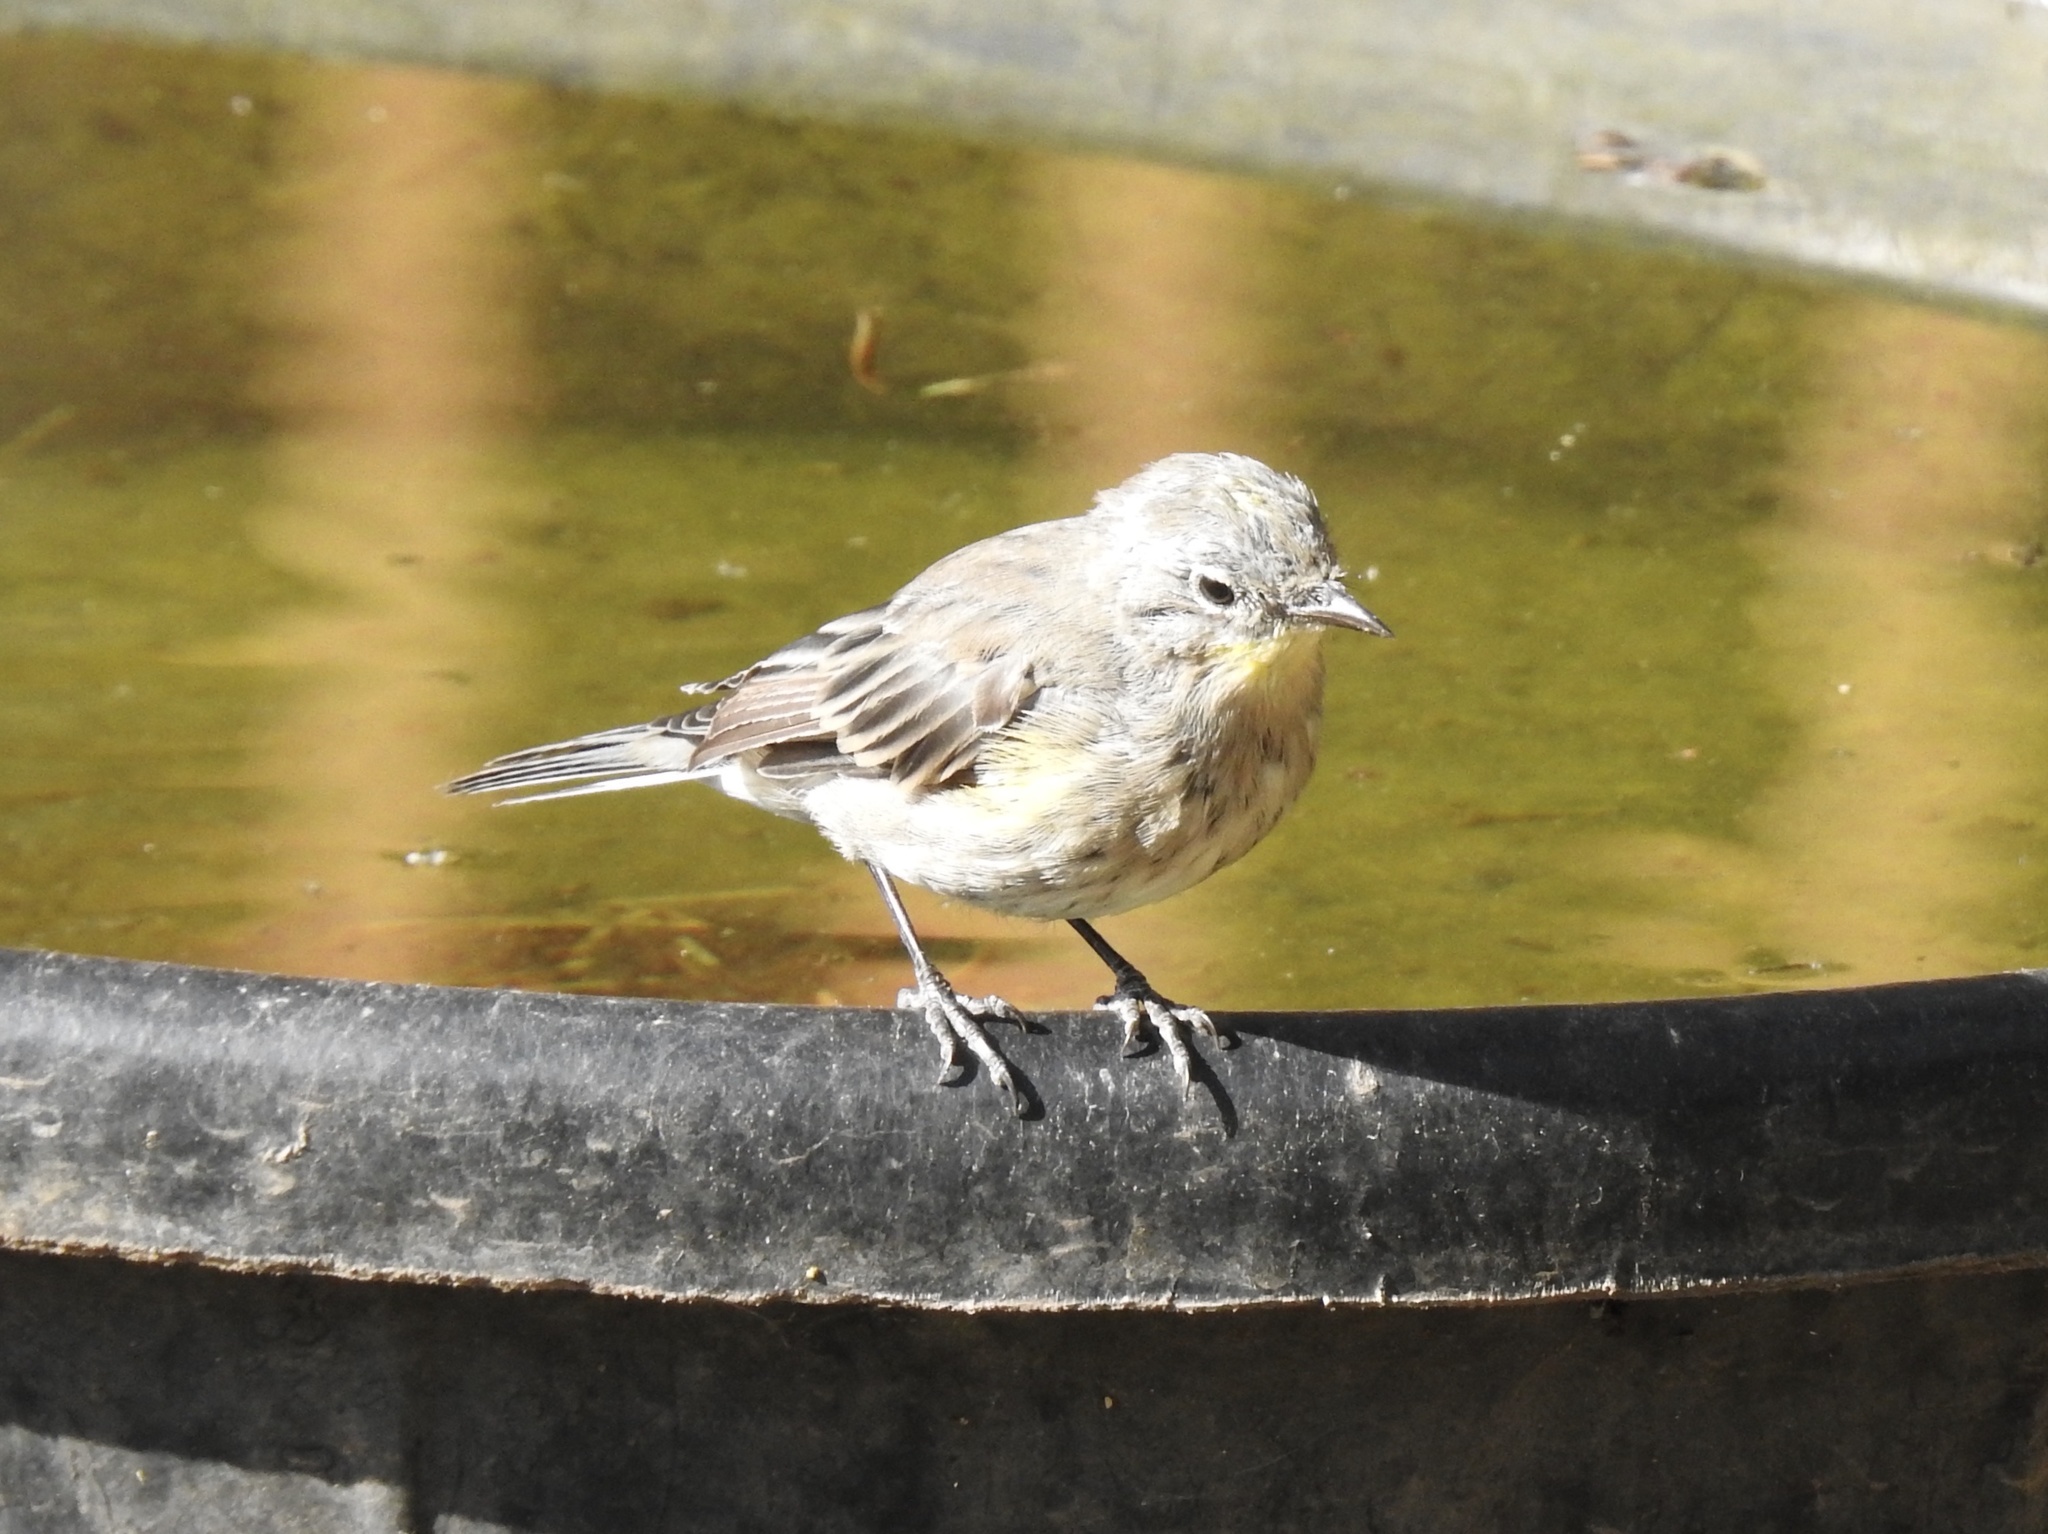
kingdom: Animalia
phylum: Chordata
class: Aves
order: Passeriformes
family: Parulidae
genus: Setophaga
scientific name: Setophaga coronata
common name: Myrtle warbler
